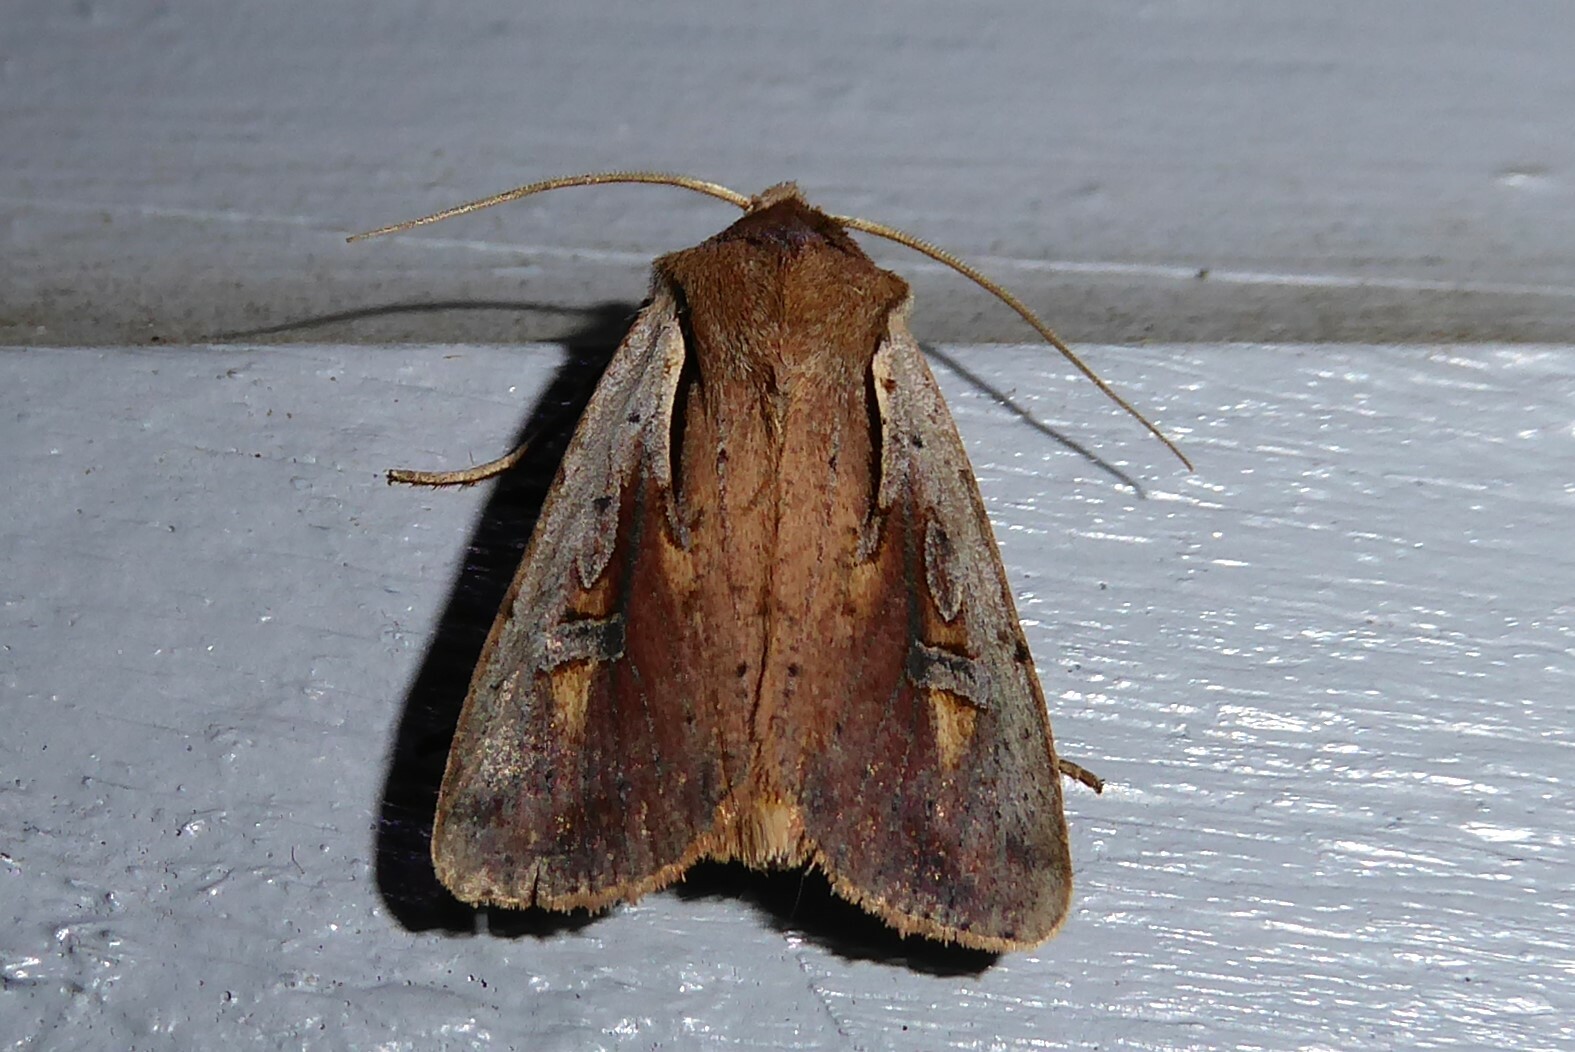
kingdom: Animalia
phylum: Arthropoda
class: Insecta
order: Lepidoptera
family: Noctuidae
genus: Ichneutica
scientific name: Ichneutica atristriga
